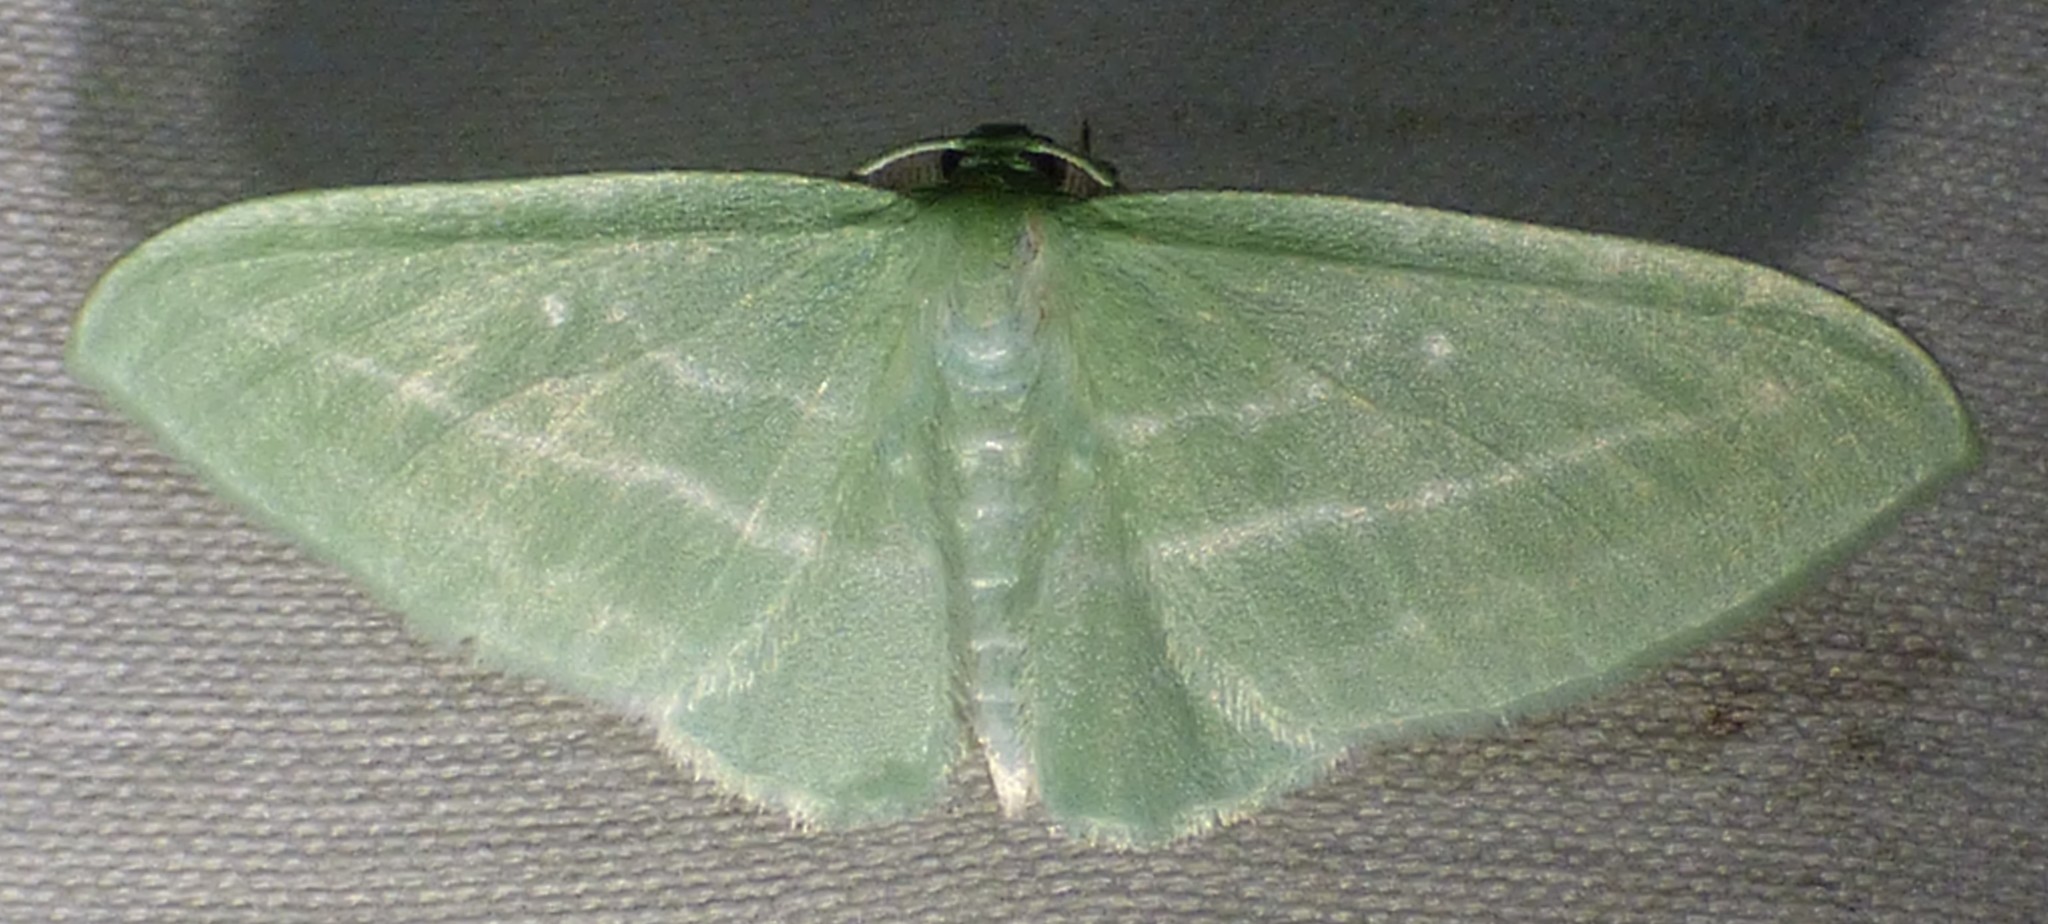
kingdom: Animalia
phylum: Arthropoda
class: Insecta
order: Lepidoptera
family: Geometridae
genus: Dyspteris
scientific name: Dyspteris abortivaria
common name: Bad-wing
